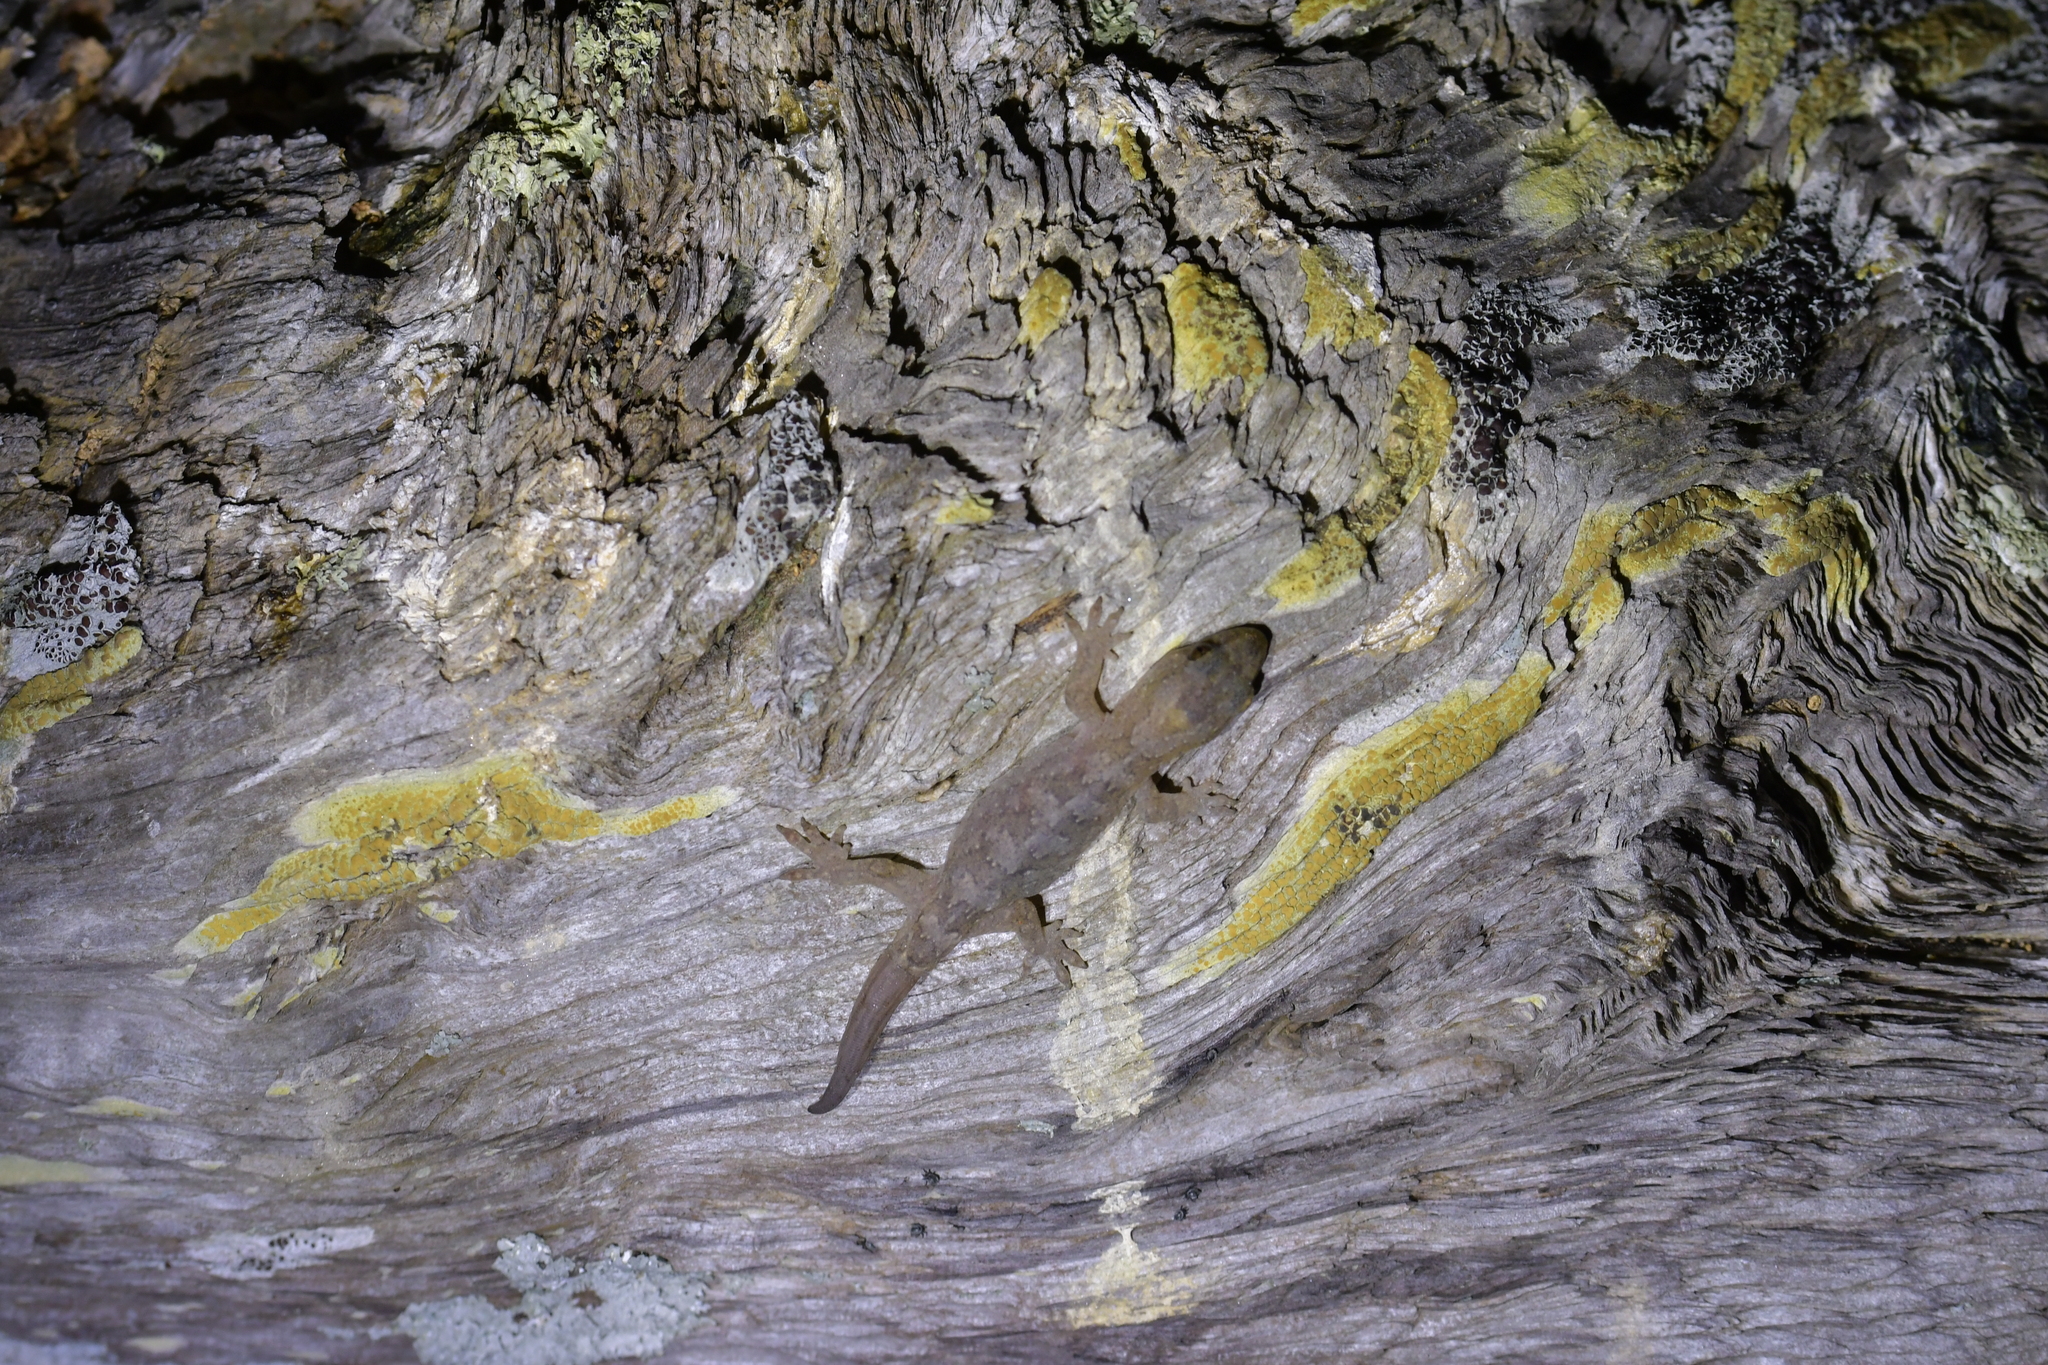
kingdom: Animalia
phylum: Chordata
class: Squamata
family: Diplodactylidae
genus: Woodworthia
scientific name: Woodworthia maculata
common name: Raukawa gecko
